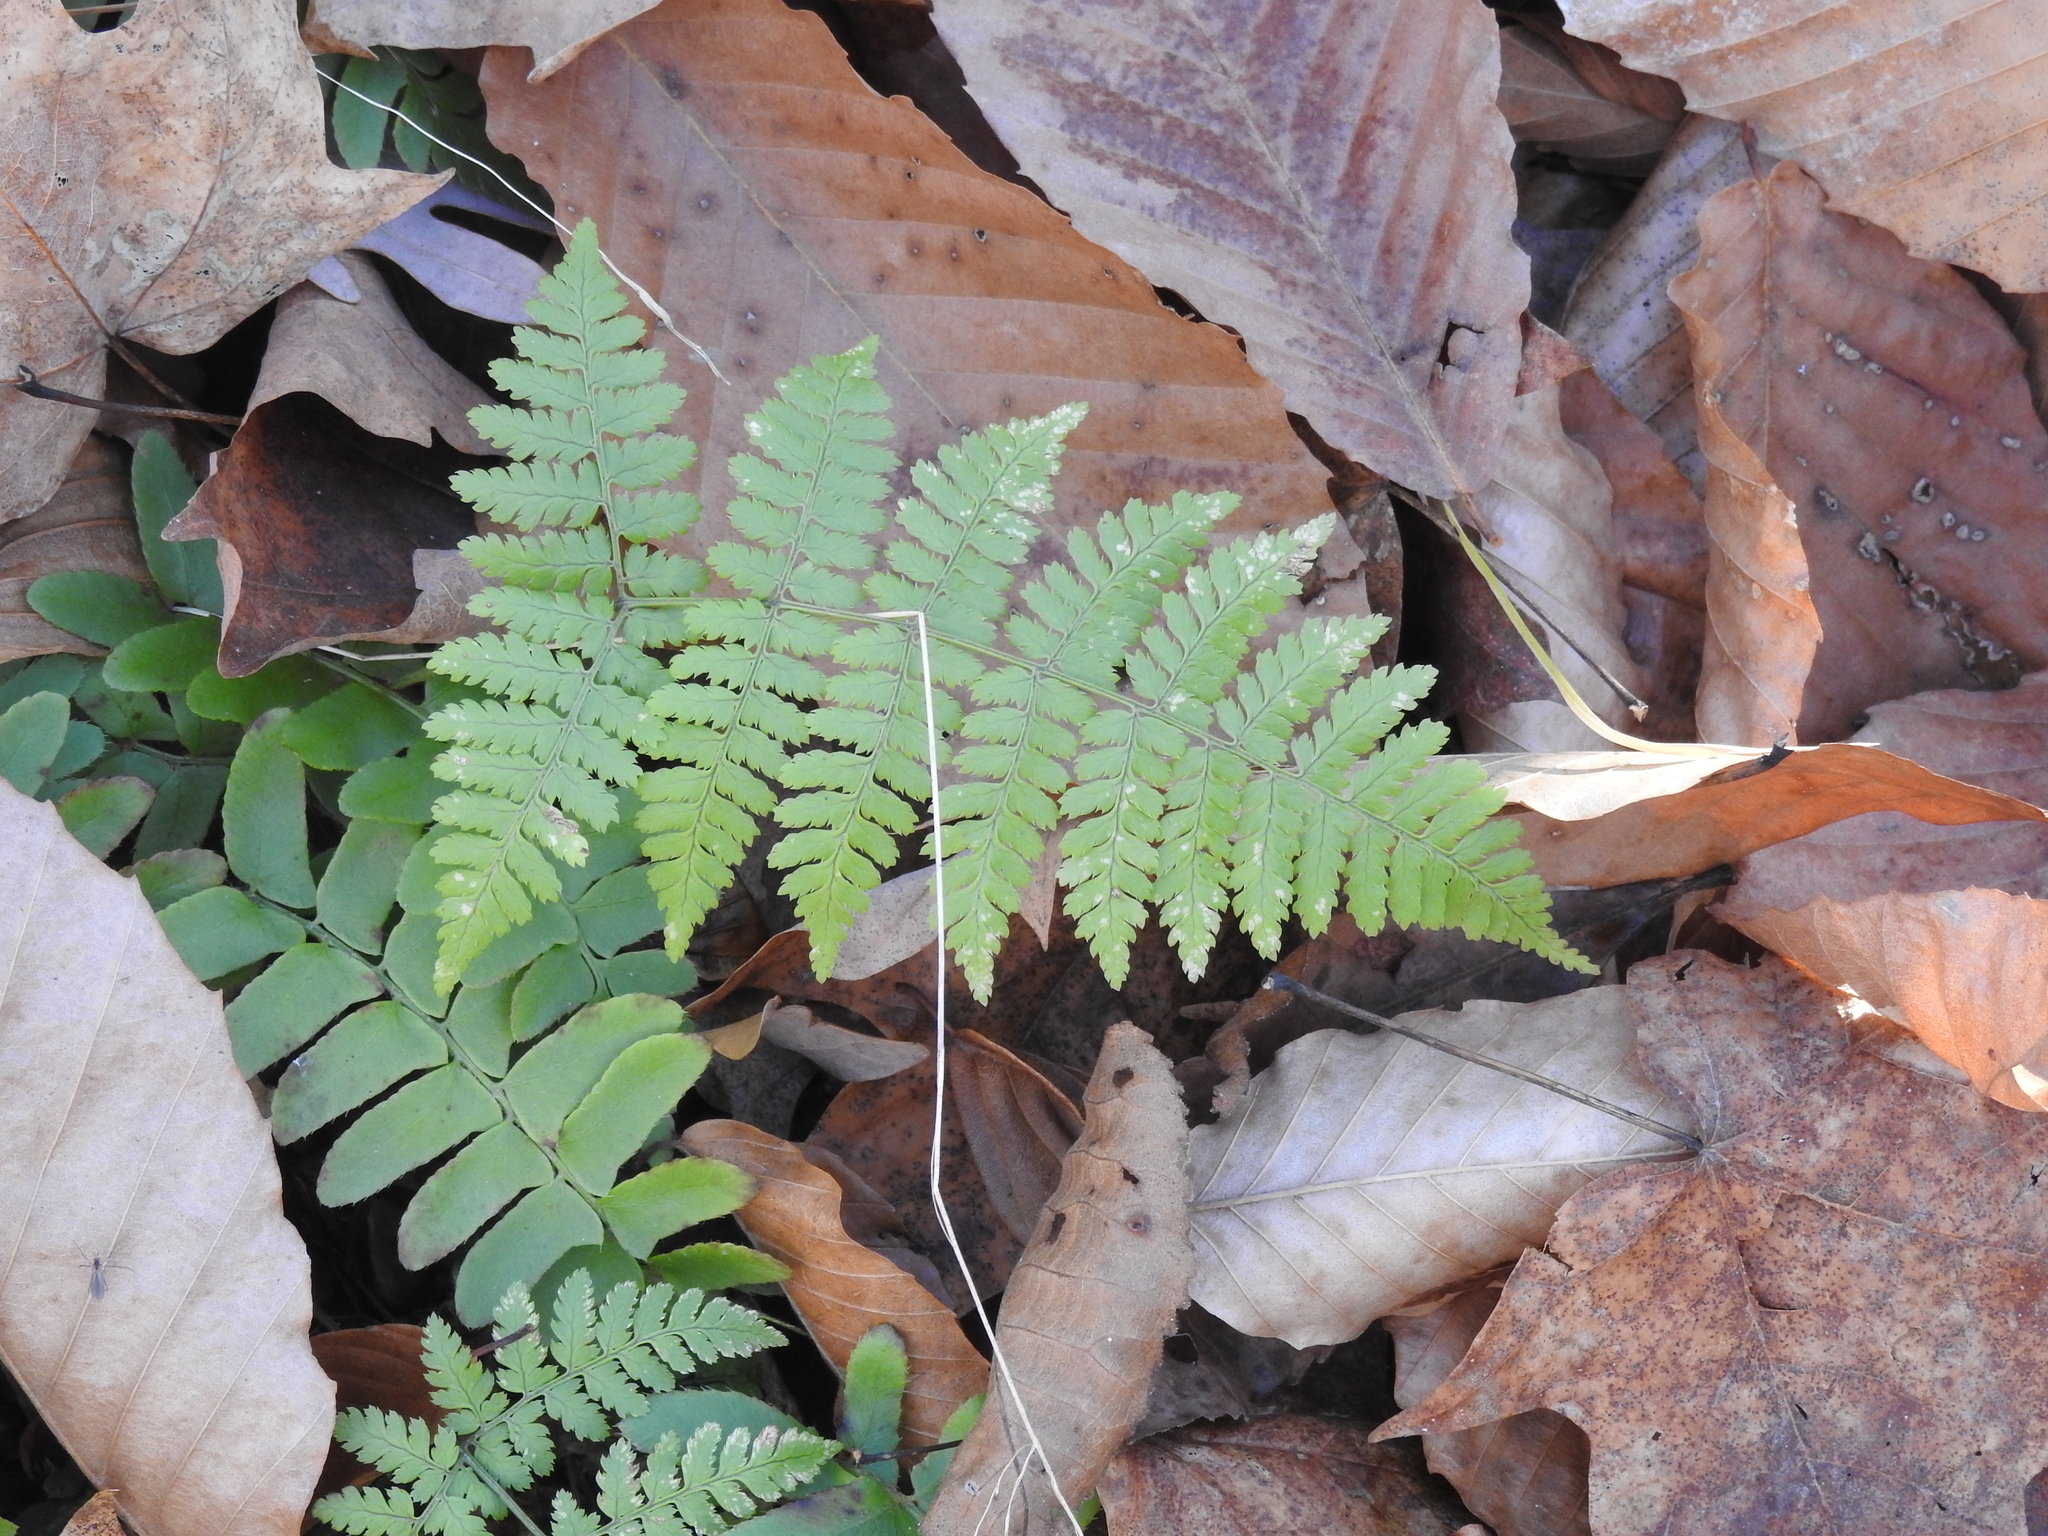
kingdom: Plantae
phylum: Tracheophyta
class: Polypodiopsida
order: Polypodiales
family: Dryopteridaceae
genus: Dryopteris
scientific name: Dryopteris intermedia
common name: Evergreen wood fern
